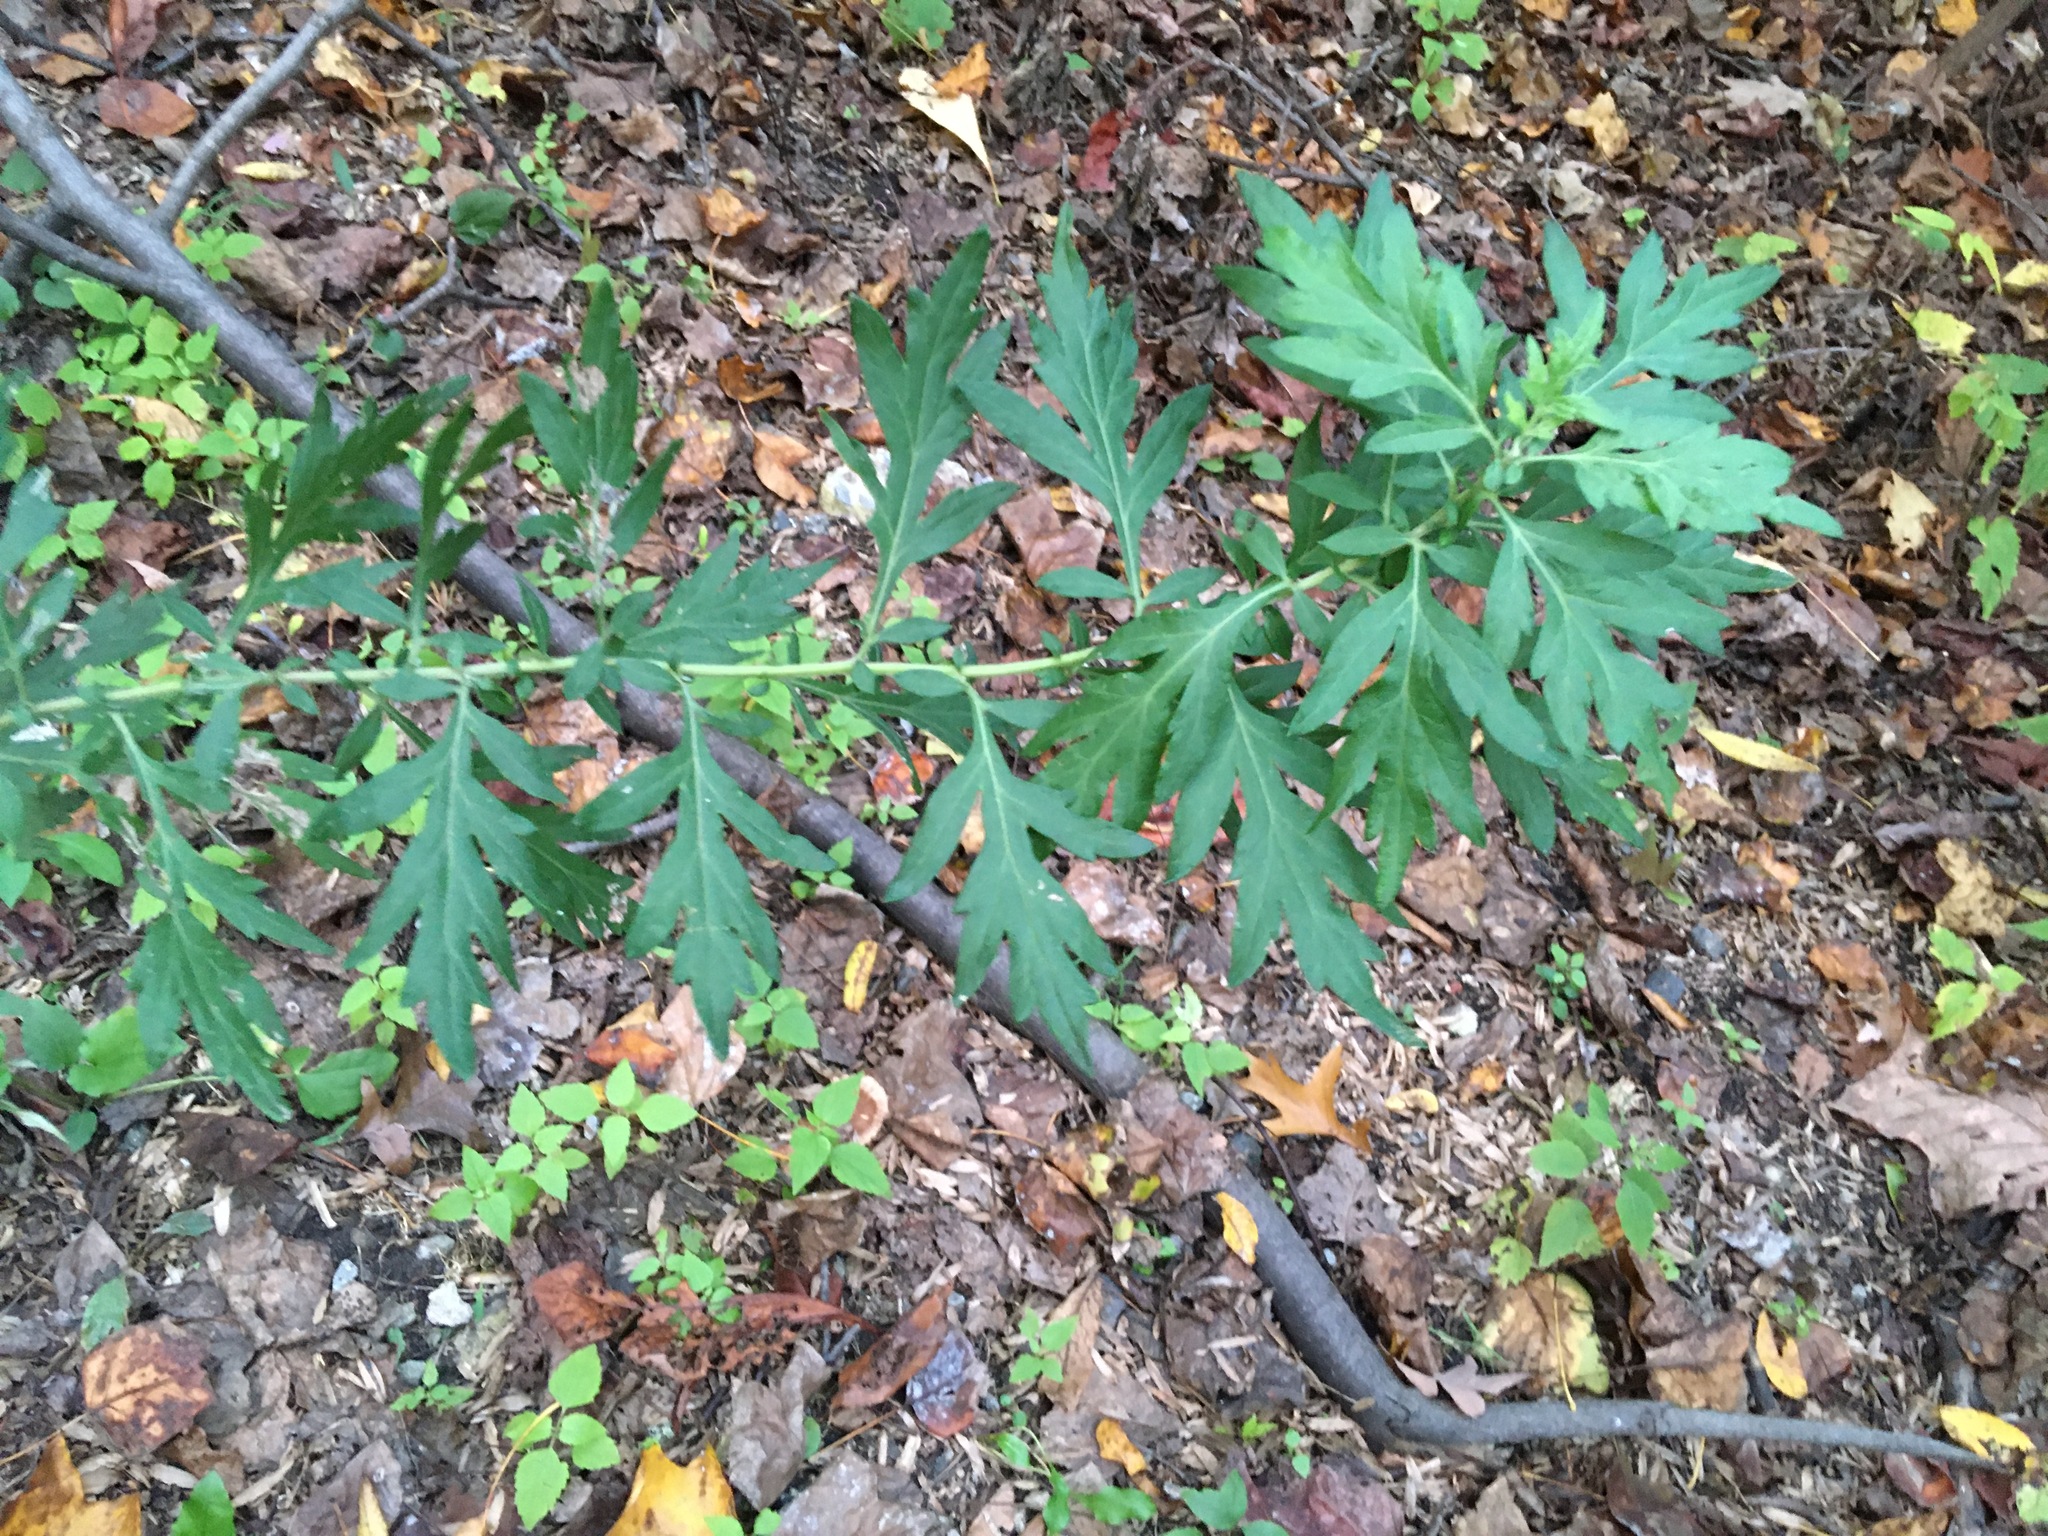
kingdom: Plantae
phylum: Tracheophyta
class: Magnoliopsida
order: Asterales
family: Asteraceae
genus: Artemisia
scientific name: Artemisia vulgaris
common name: Mugwort
